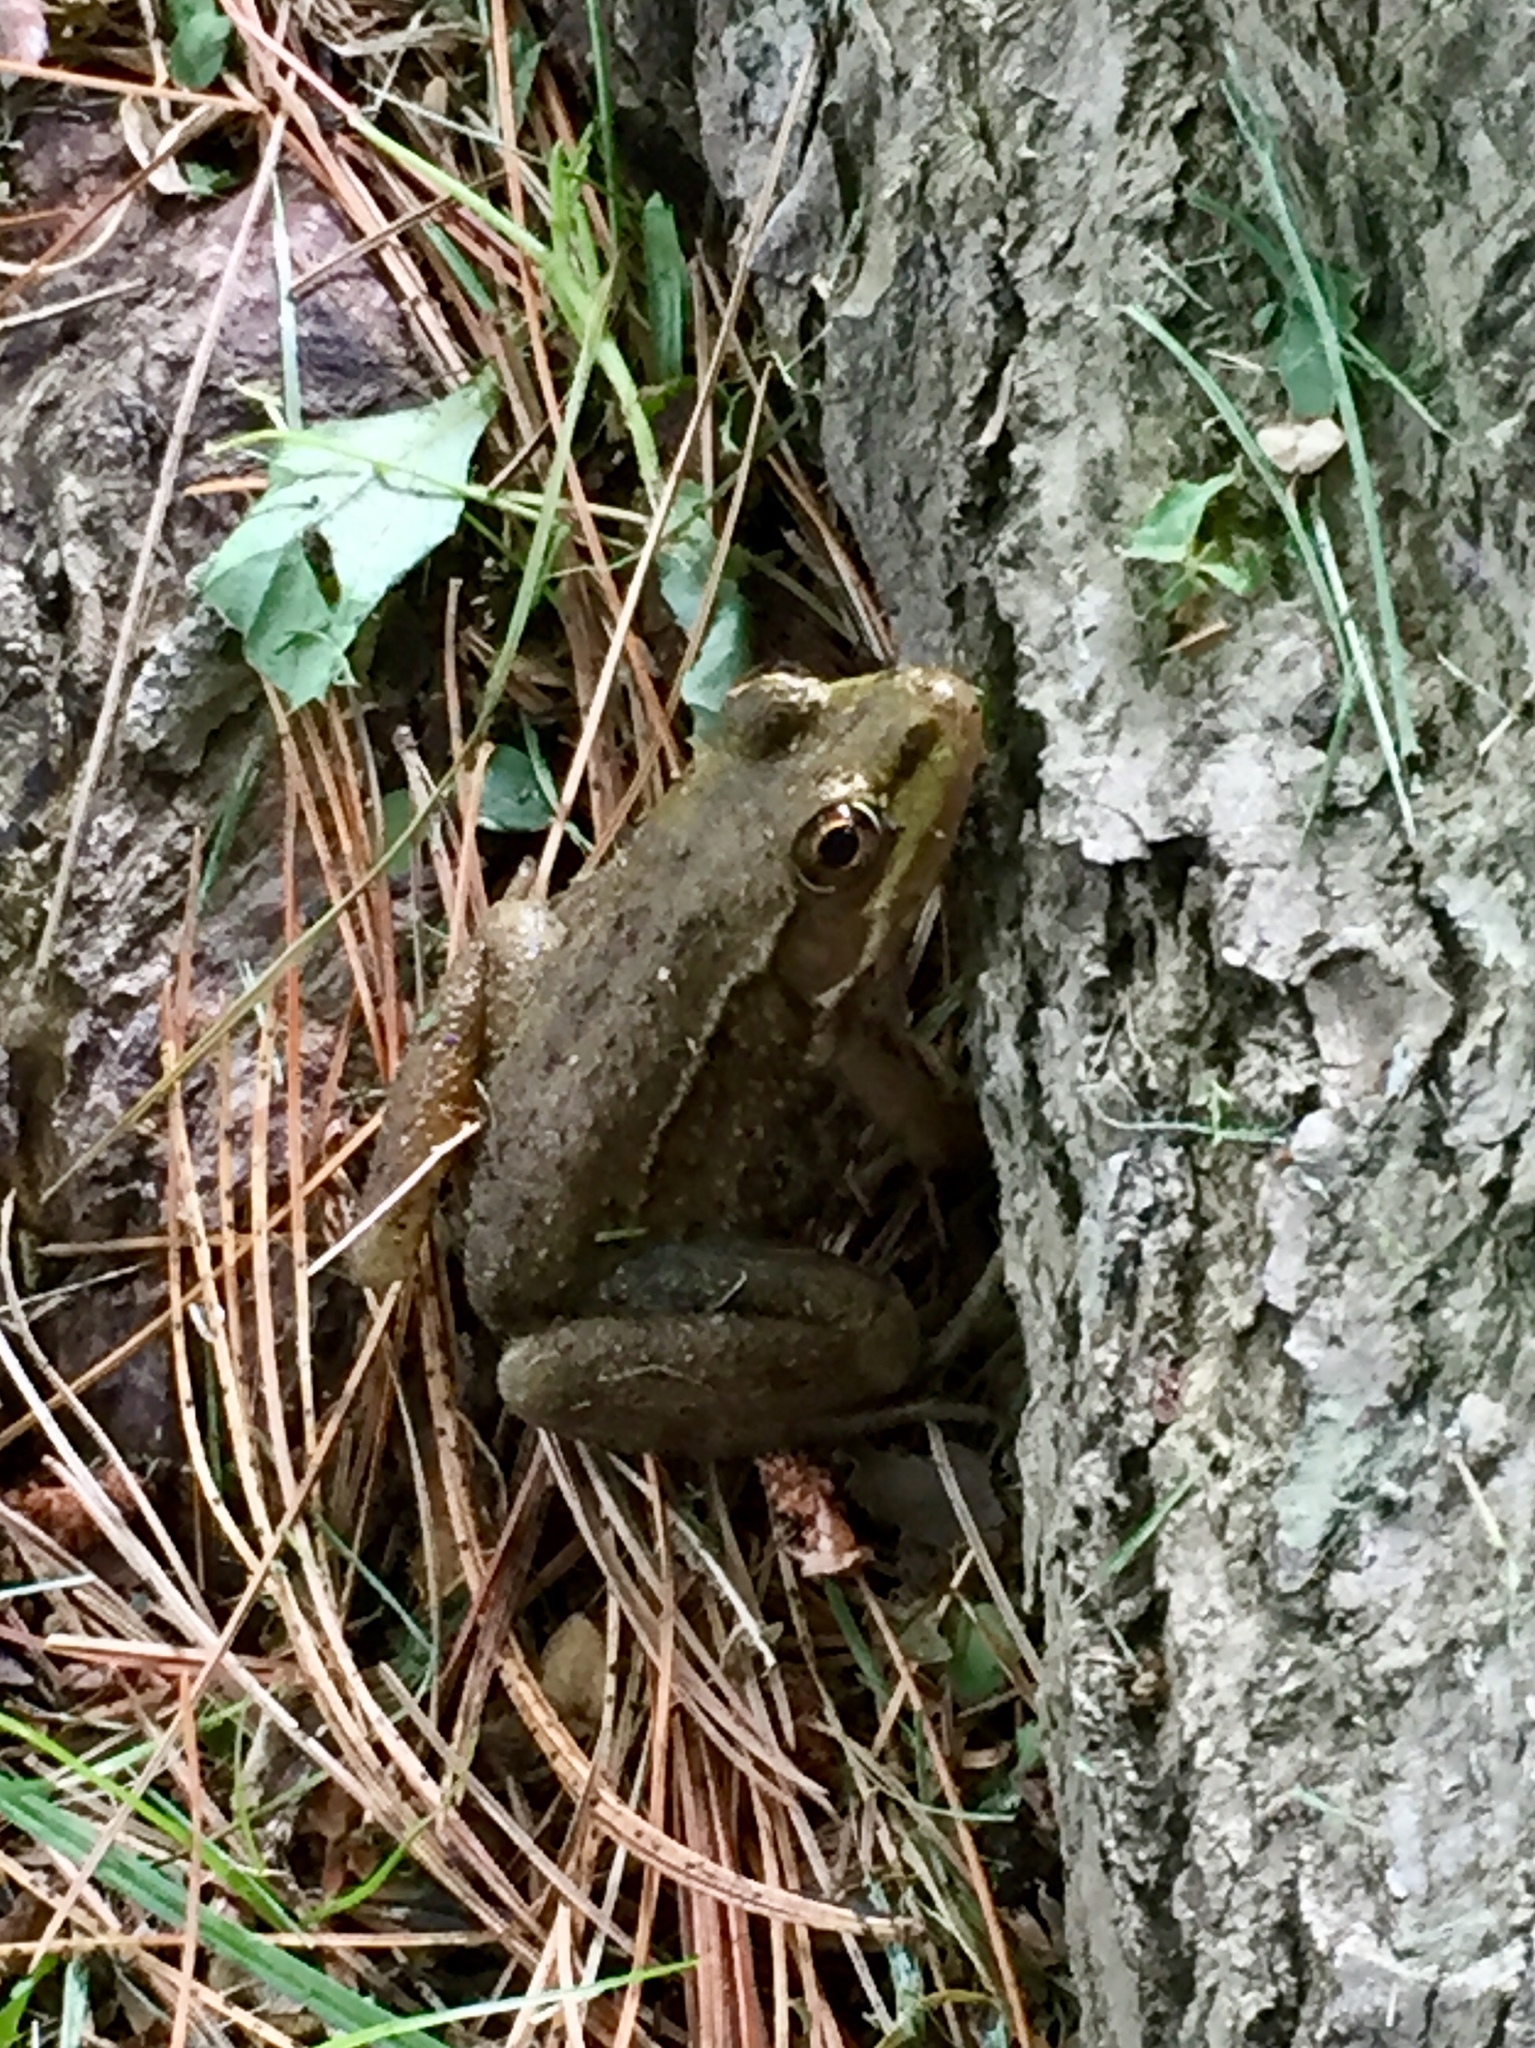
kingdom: Animalia
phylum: Chordata
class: Amphibia
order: Anura
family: Ranidae
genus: Lithobates
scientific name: Lithobates clamitans
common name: Green frog
